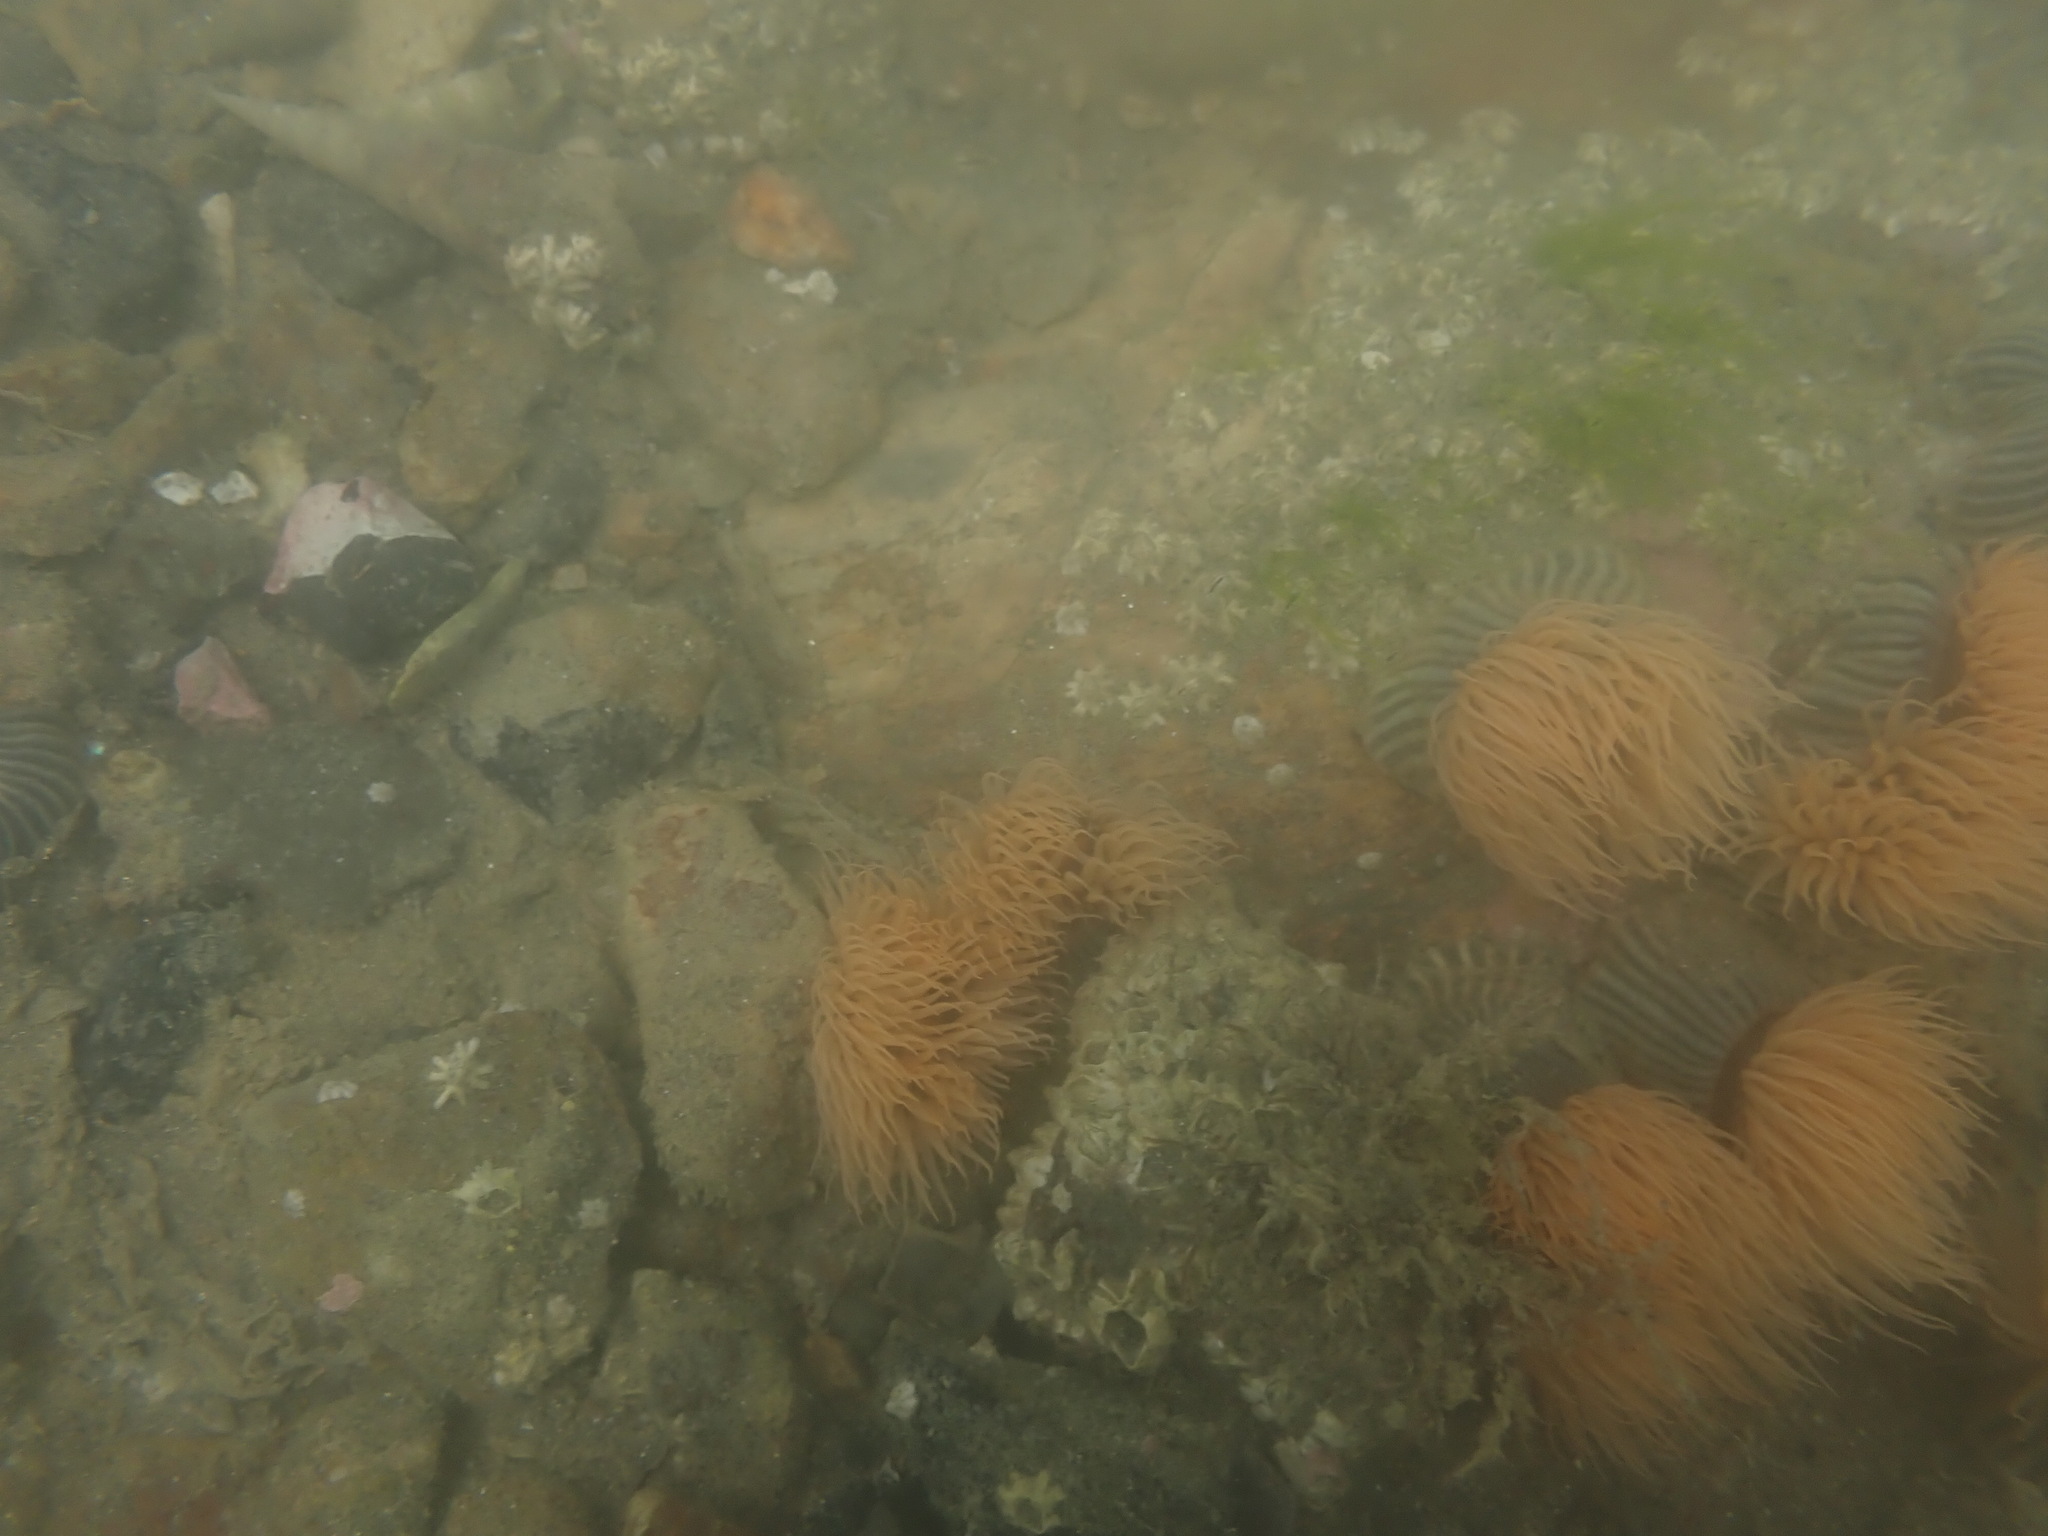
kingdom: Animalia
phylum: Cnidaria
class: Anthozoa
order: Actiniaria
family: Diadumenidae
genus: Diadumene
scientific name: Diadumene neozelanica
